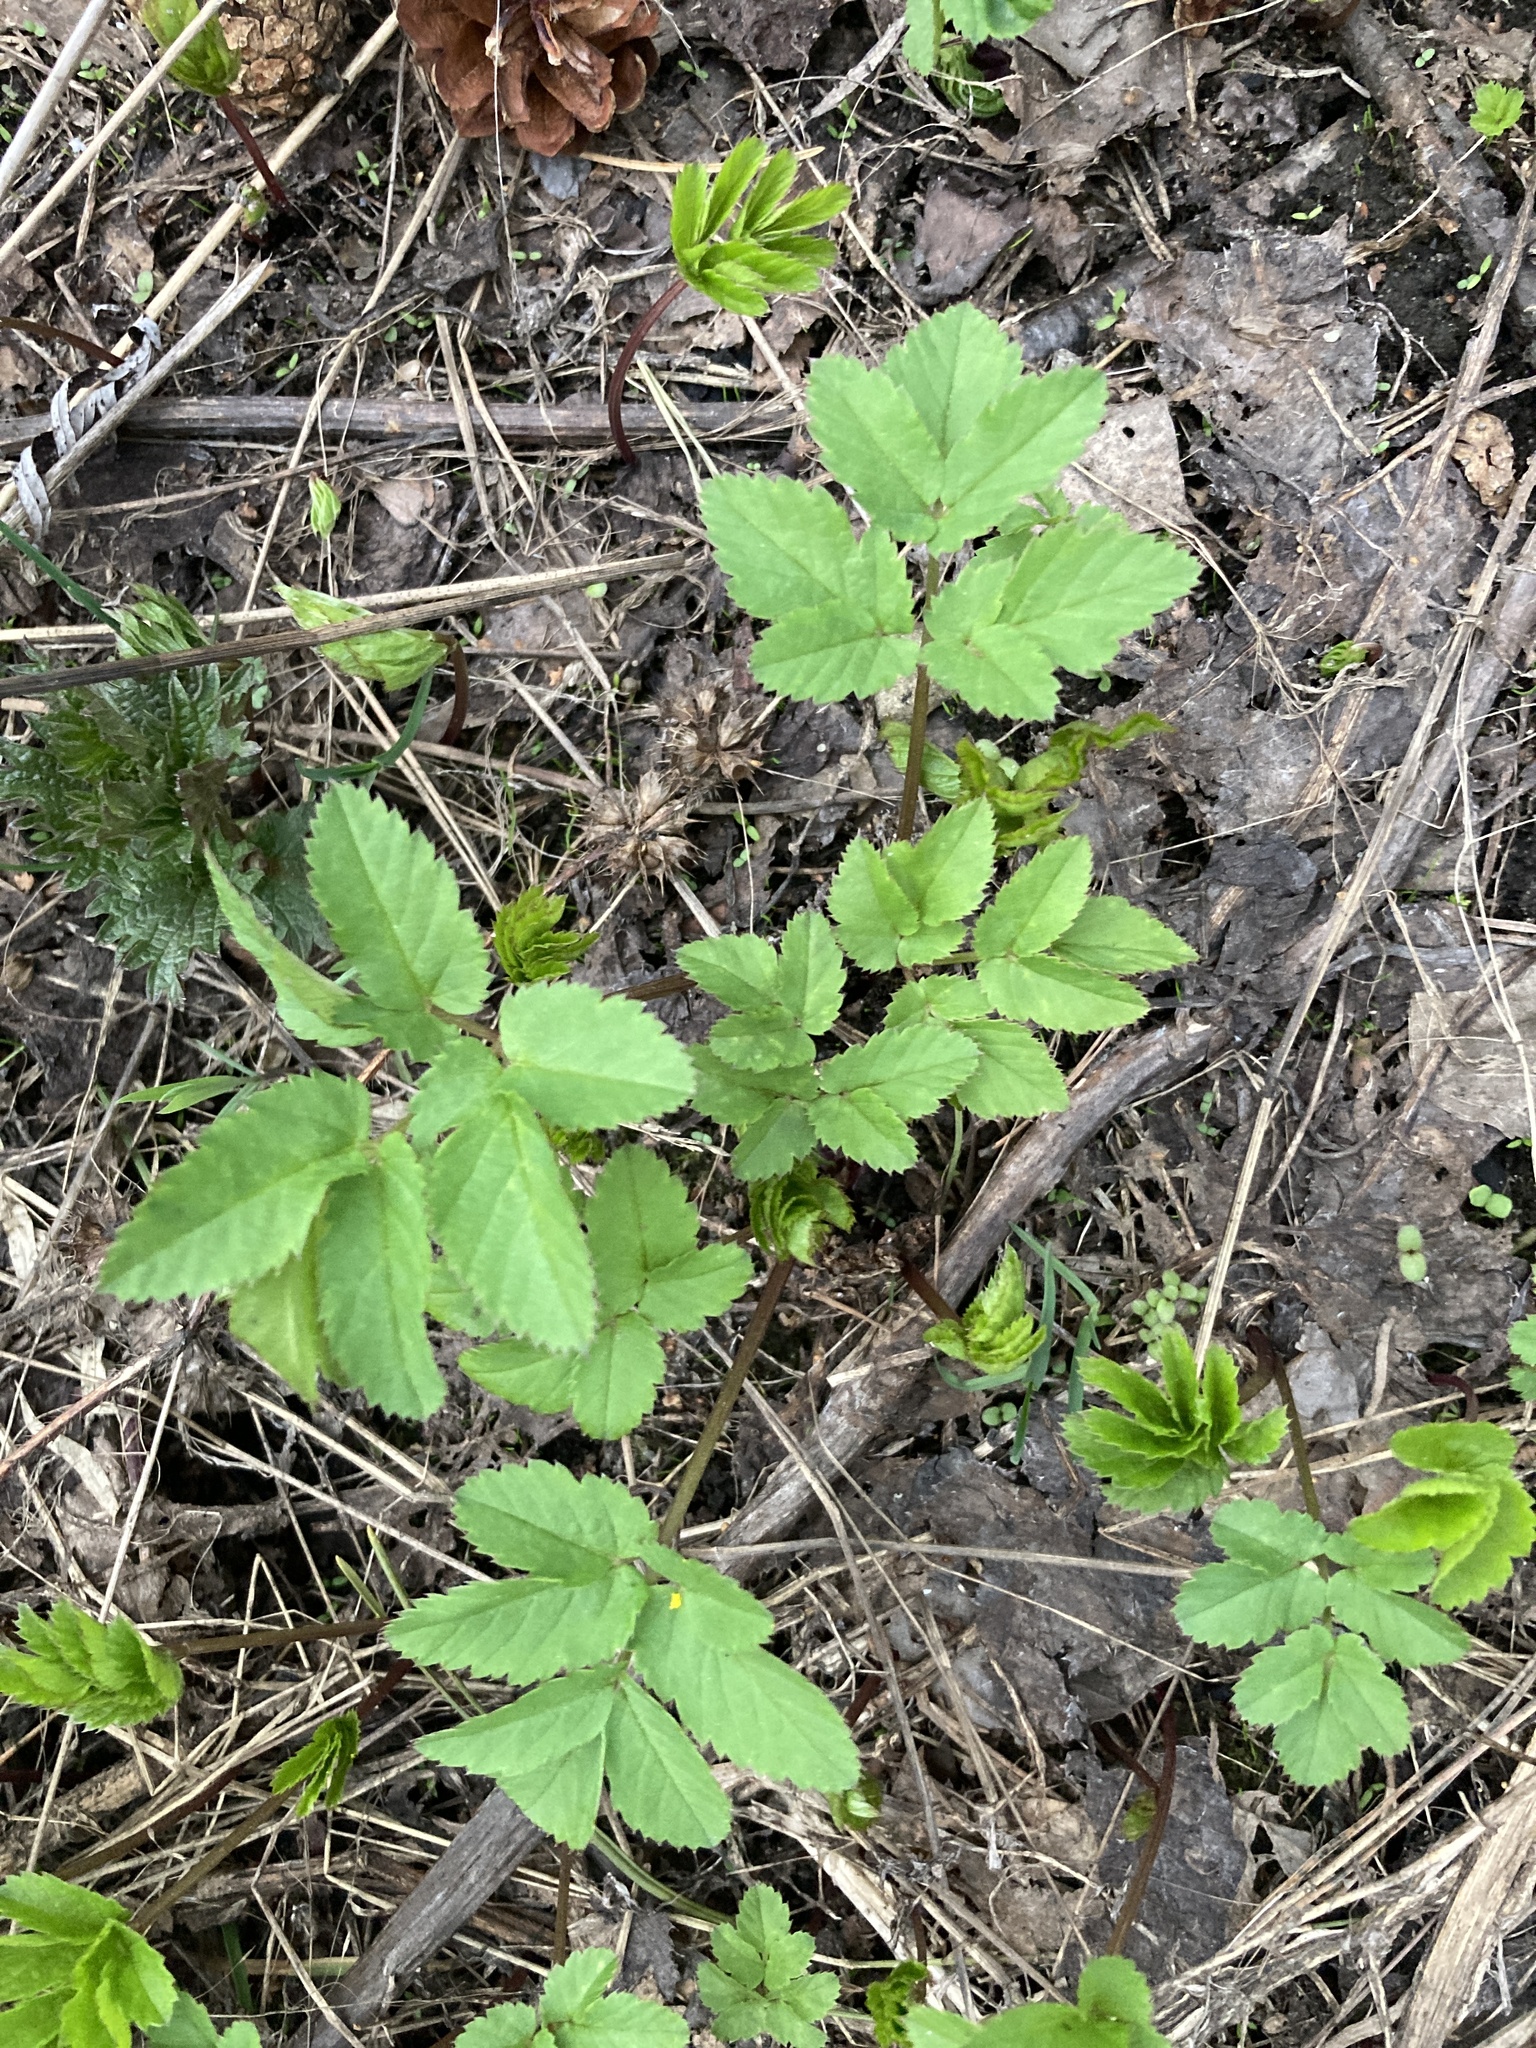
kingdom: Plantae
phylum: Tracheophyta
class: Magnoliopsida
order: Apiales
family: Apiaceae
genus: Aegopodium
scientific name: Aegopodium podagraria
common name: Ground-elder
